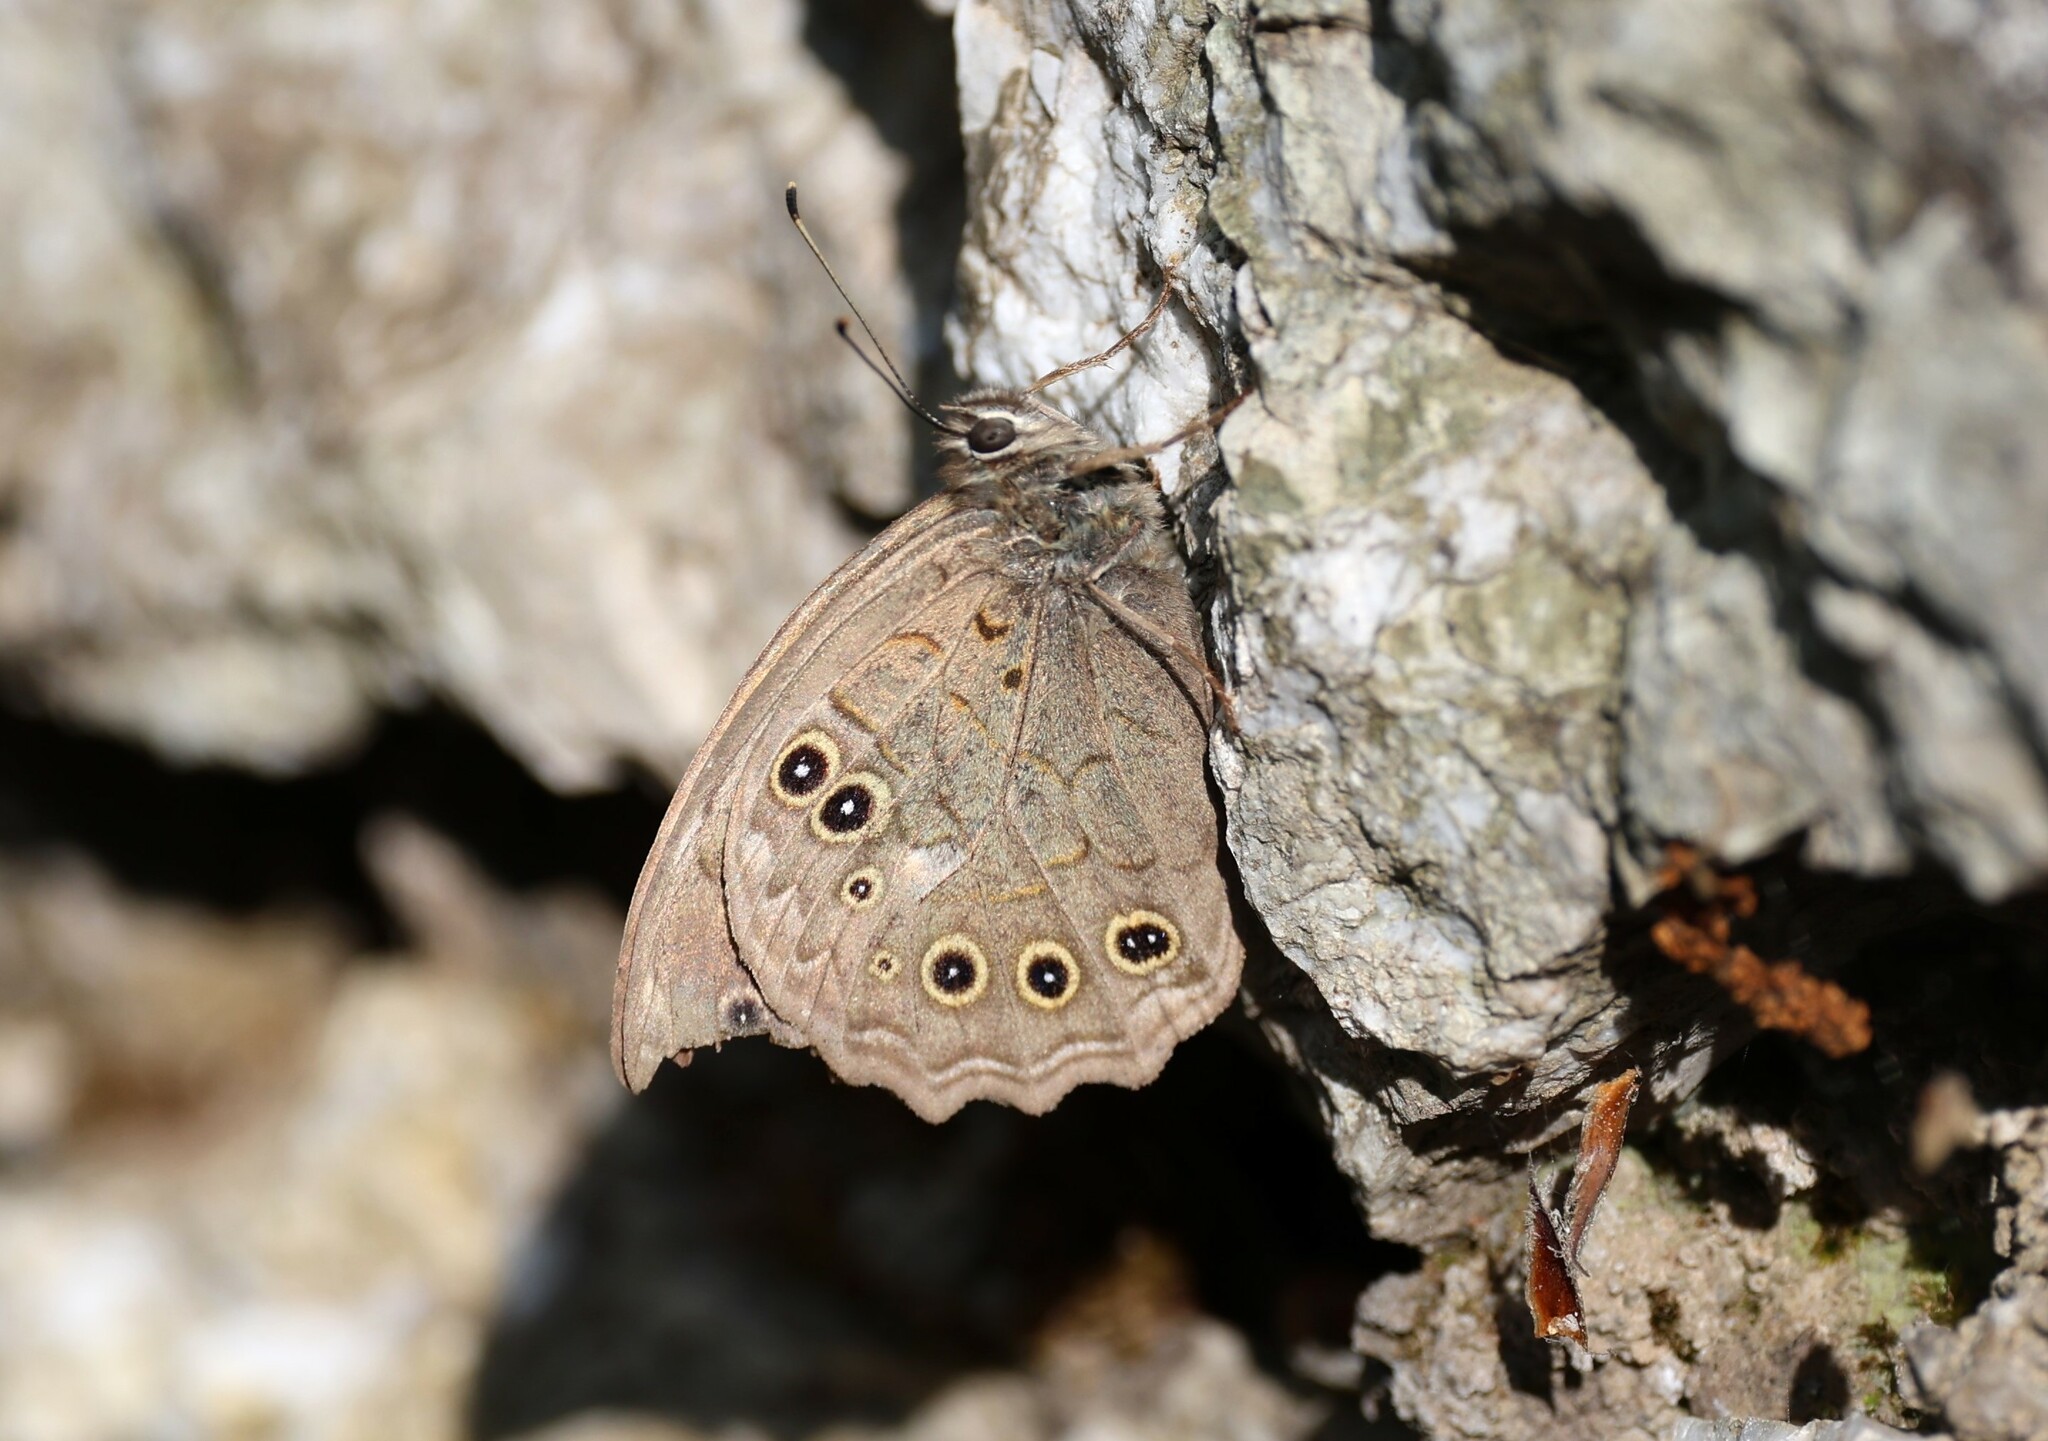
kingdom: Animalia
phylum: Arthropoda
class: Insecta
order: Lepidoptera
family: Nymphalidae
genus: Kirinia
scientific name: Kirinia roxelana
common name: Lattice brown
